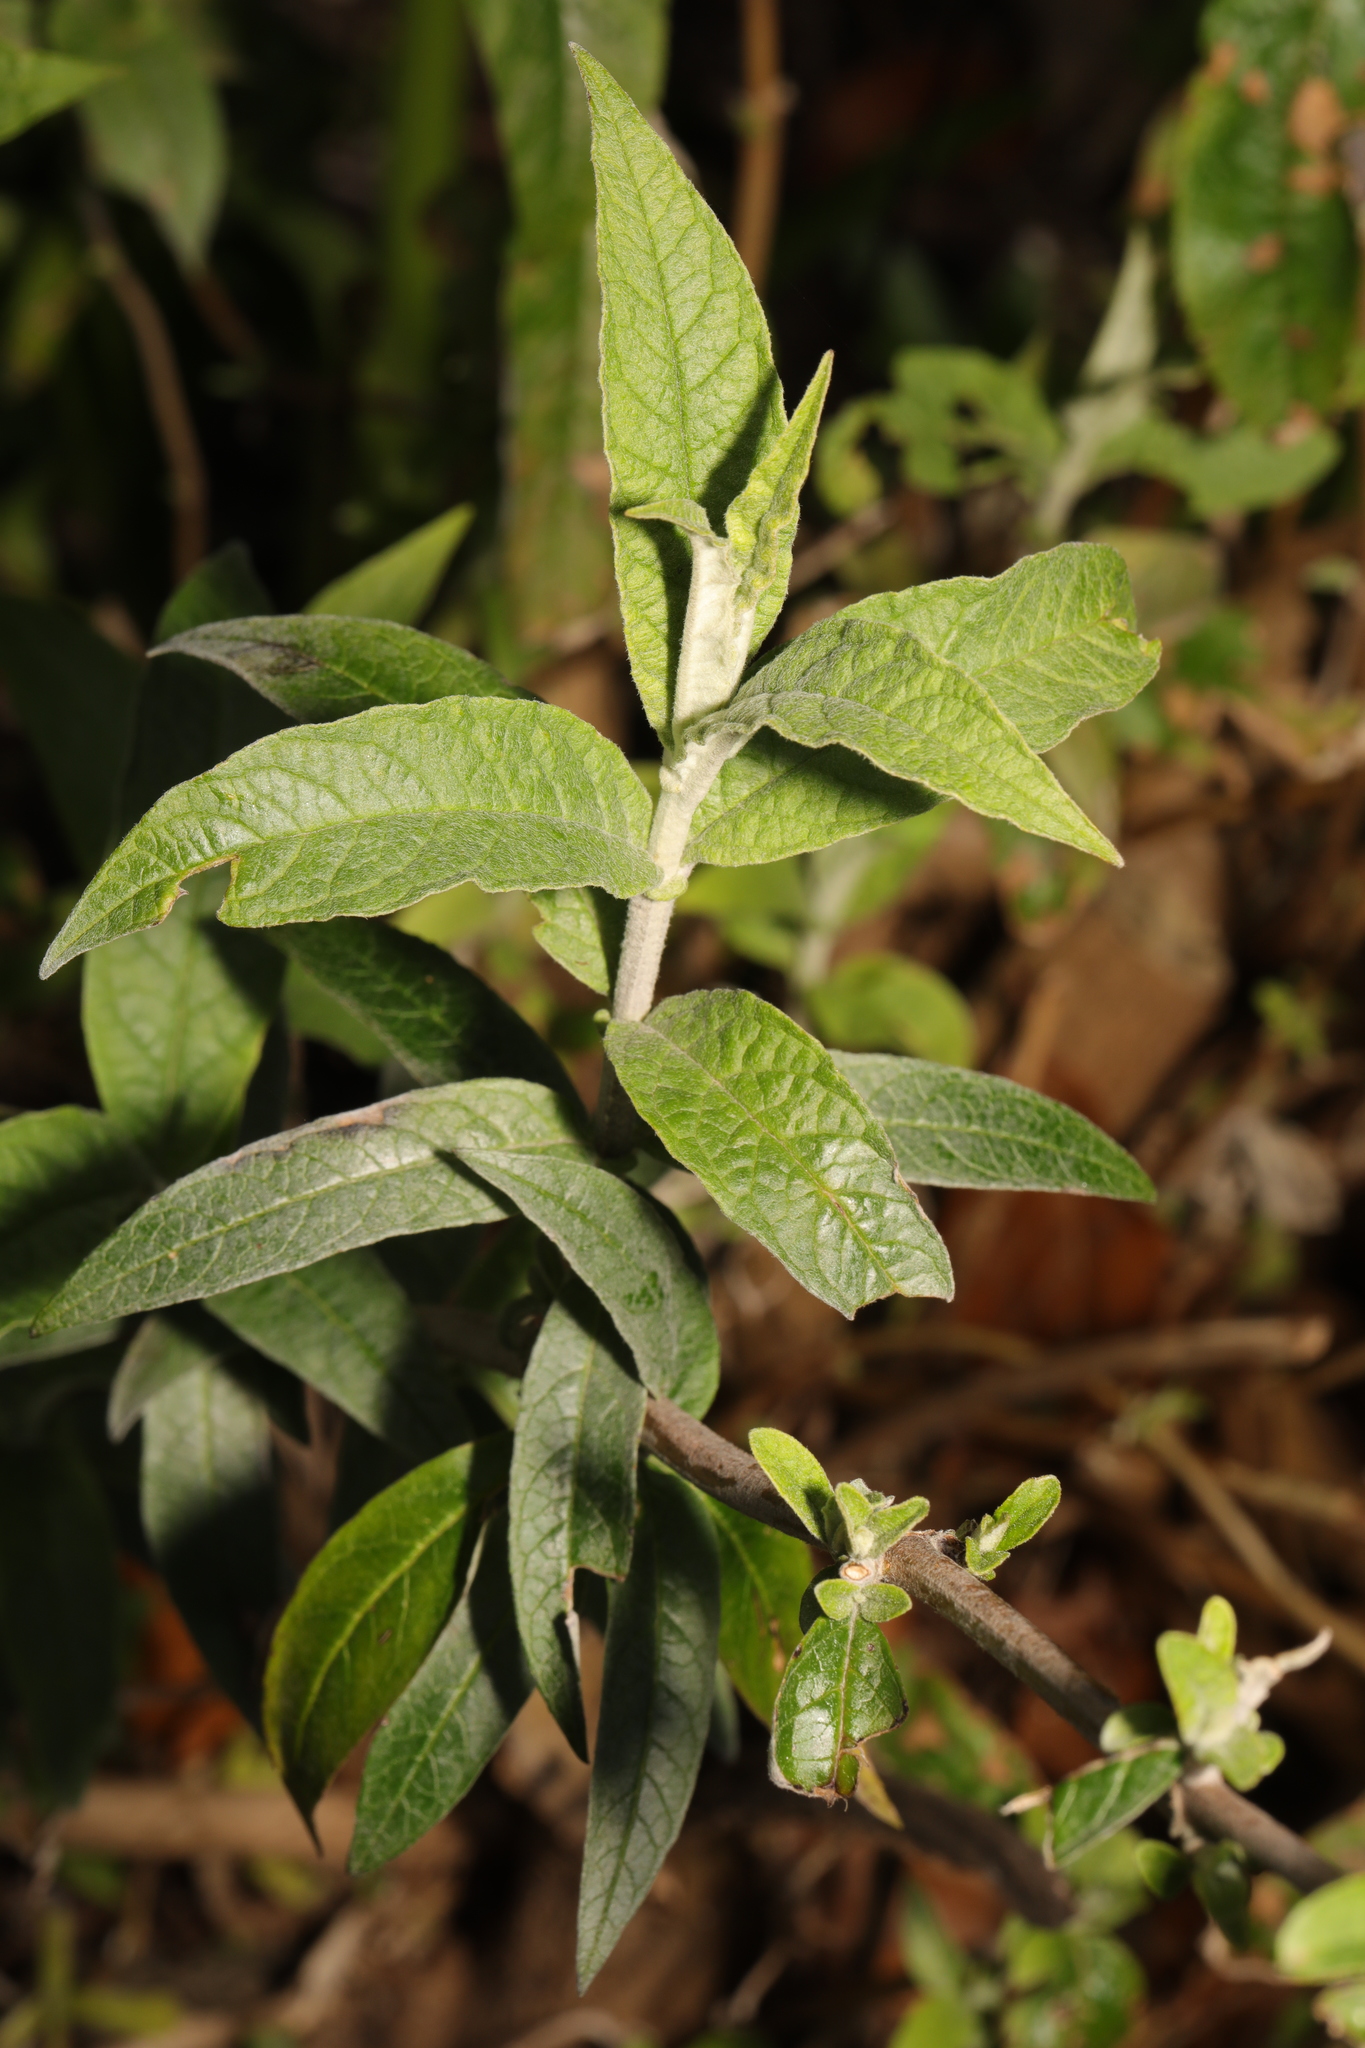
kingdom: Plantae
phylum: Tracheophyta
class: Magnoliopsida
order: Lamiales
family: Scrophulariaceae
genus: Buddleja
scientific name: Buddleja davidii
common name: Butterfly-bush
